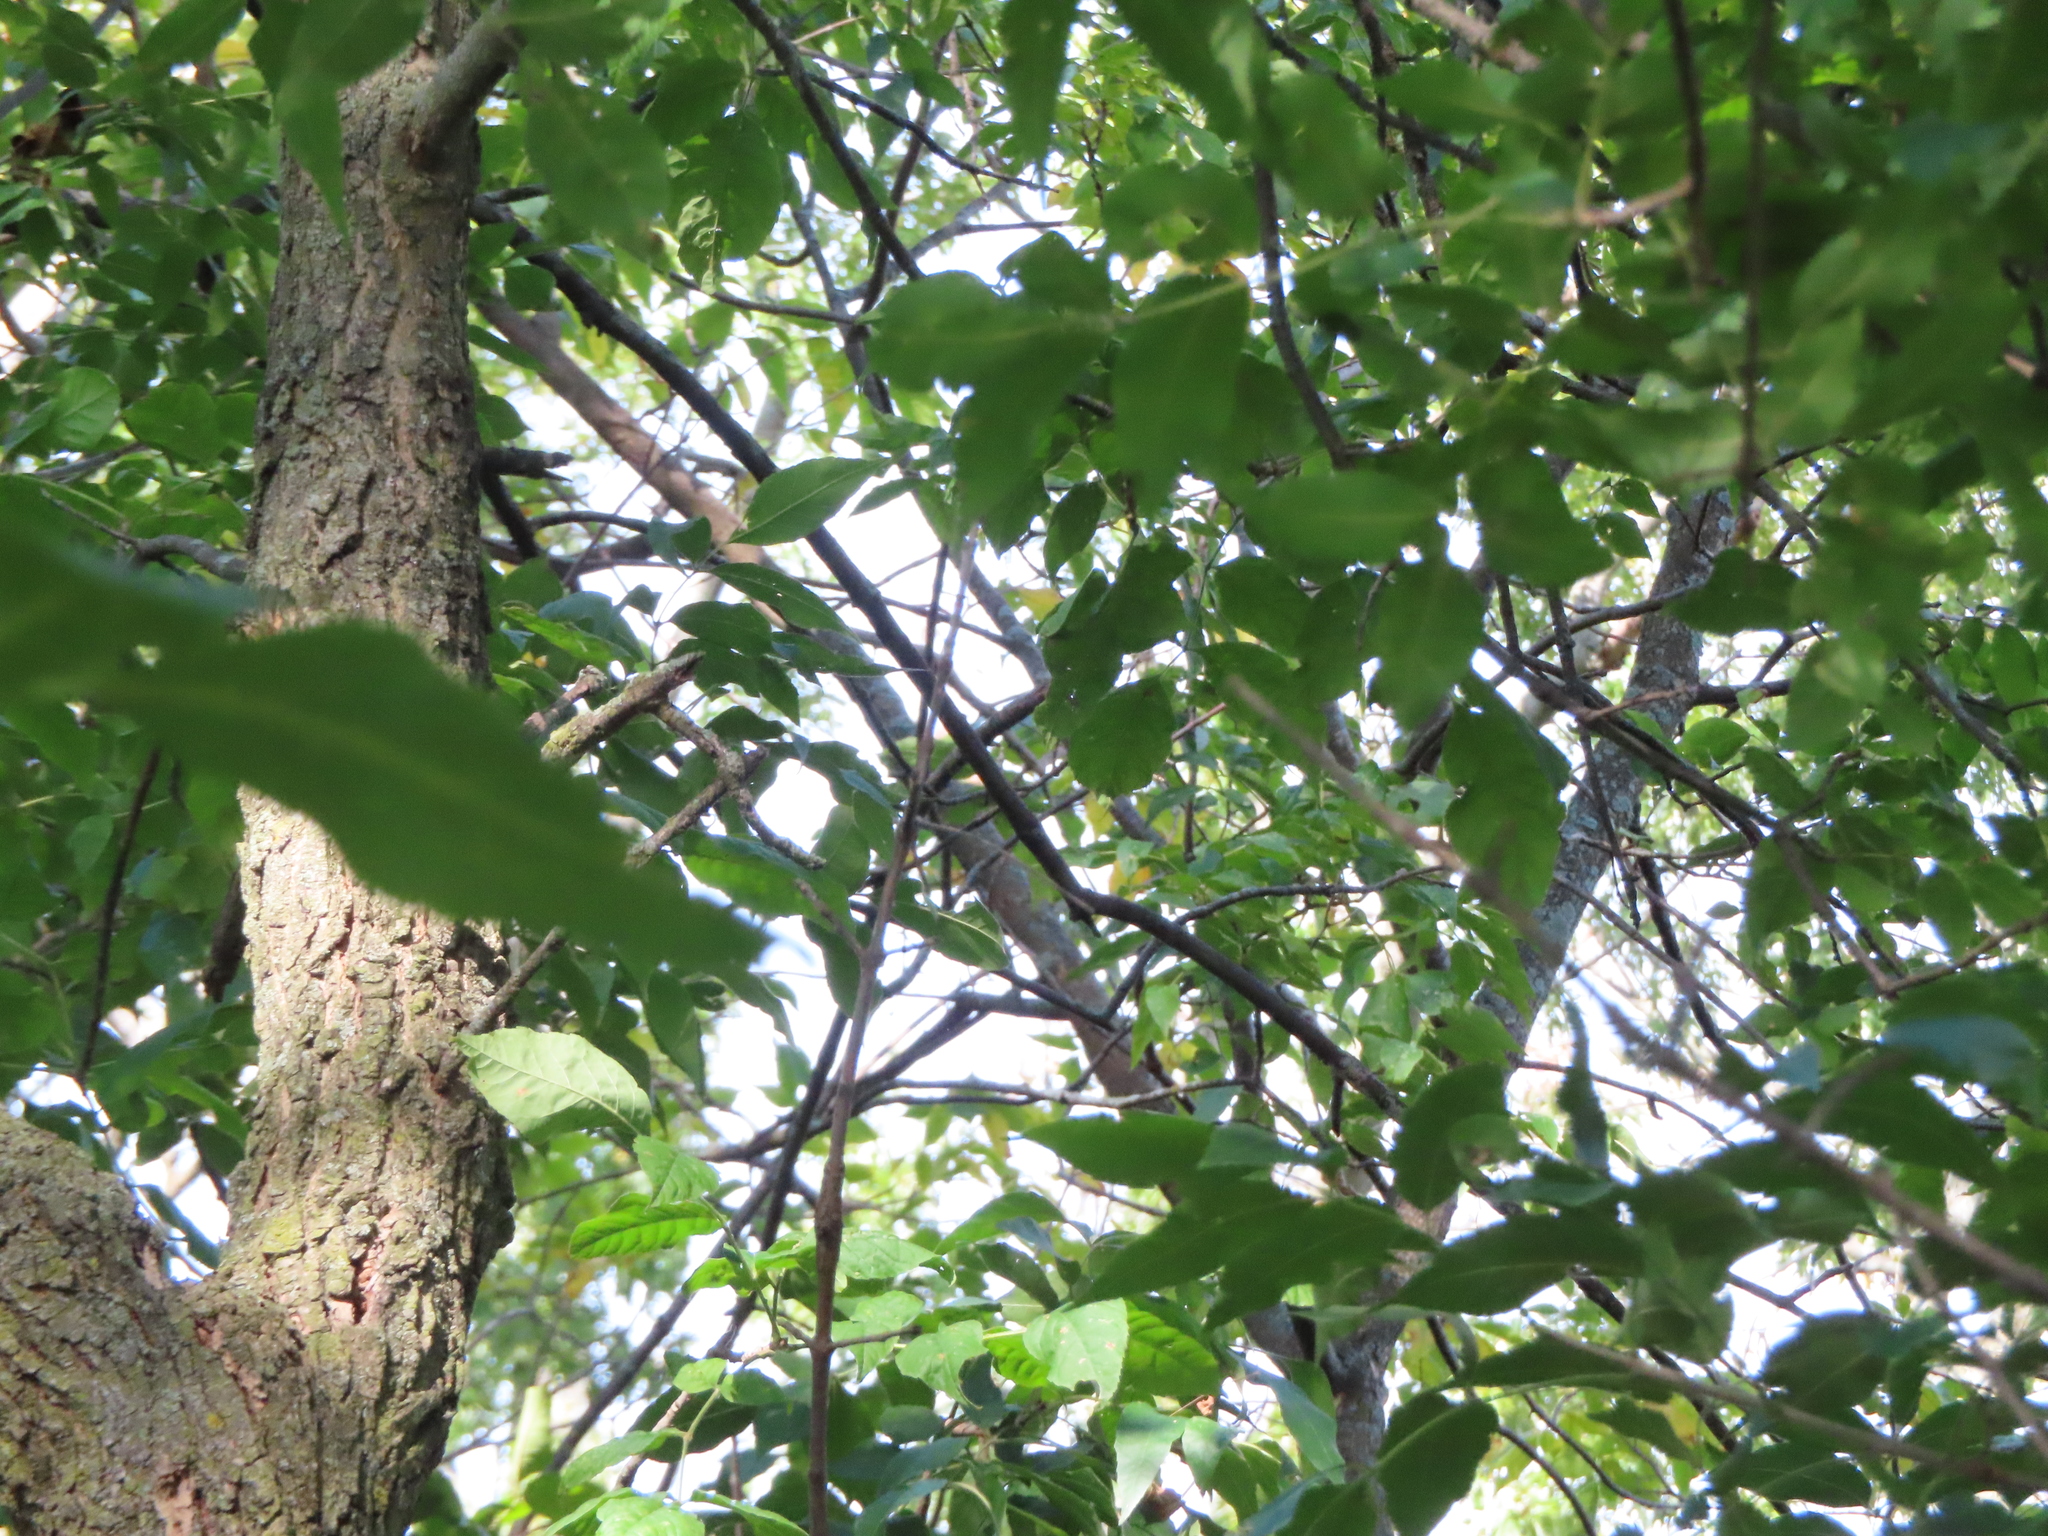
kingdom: Animalia
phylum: Chordata
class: Aves
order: Passeriformes
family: Parulidae
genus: Setophaga
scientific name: Setophaga magnolia
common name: Magnolia warbler
